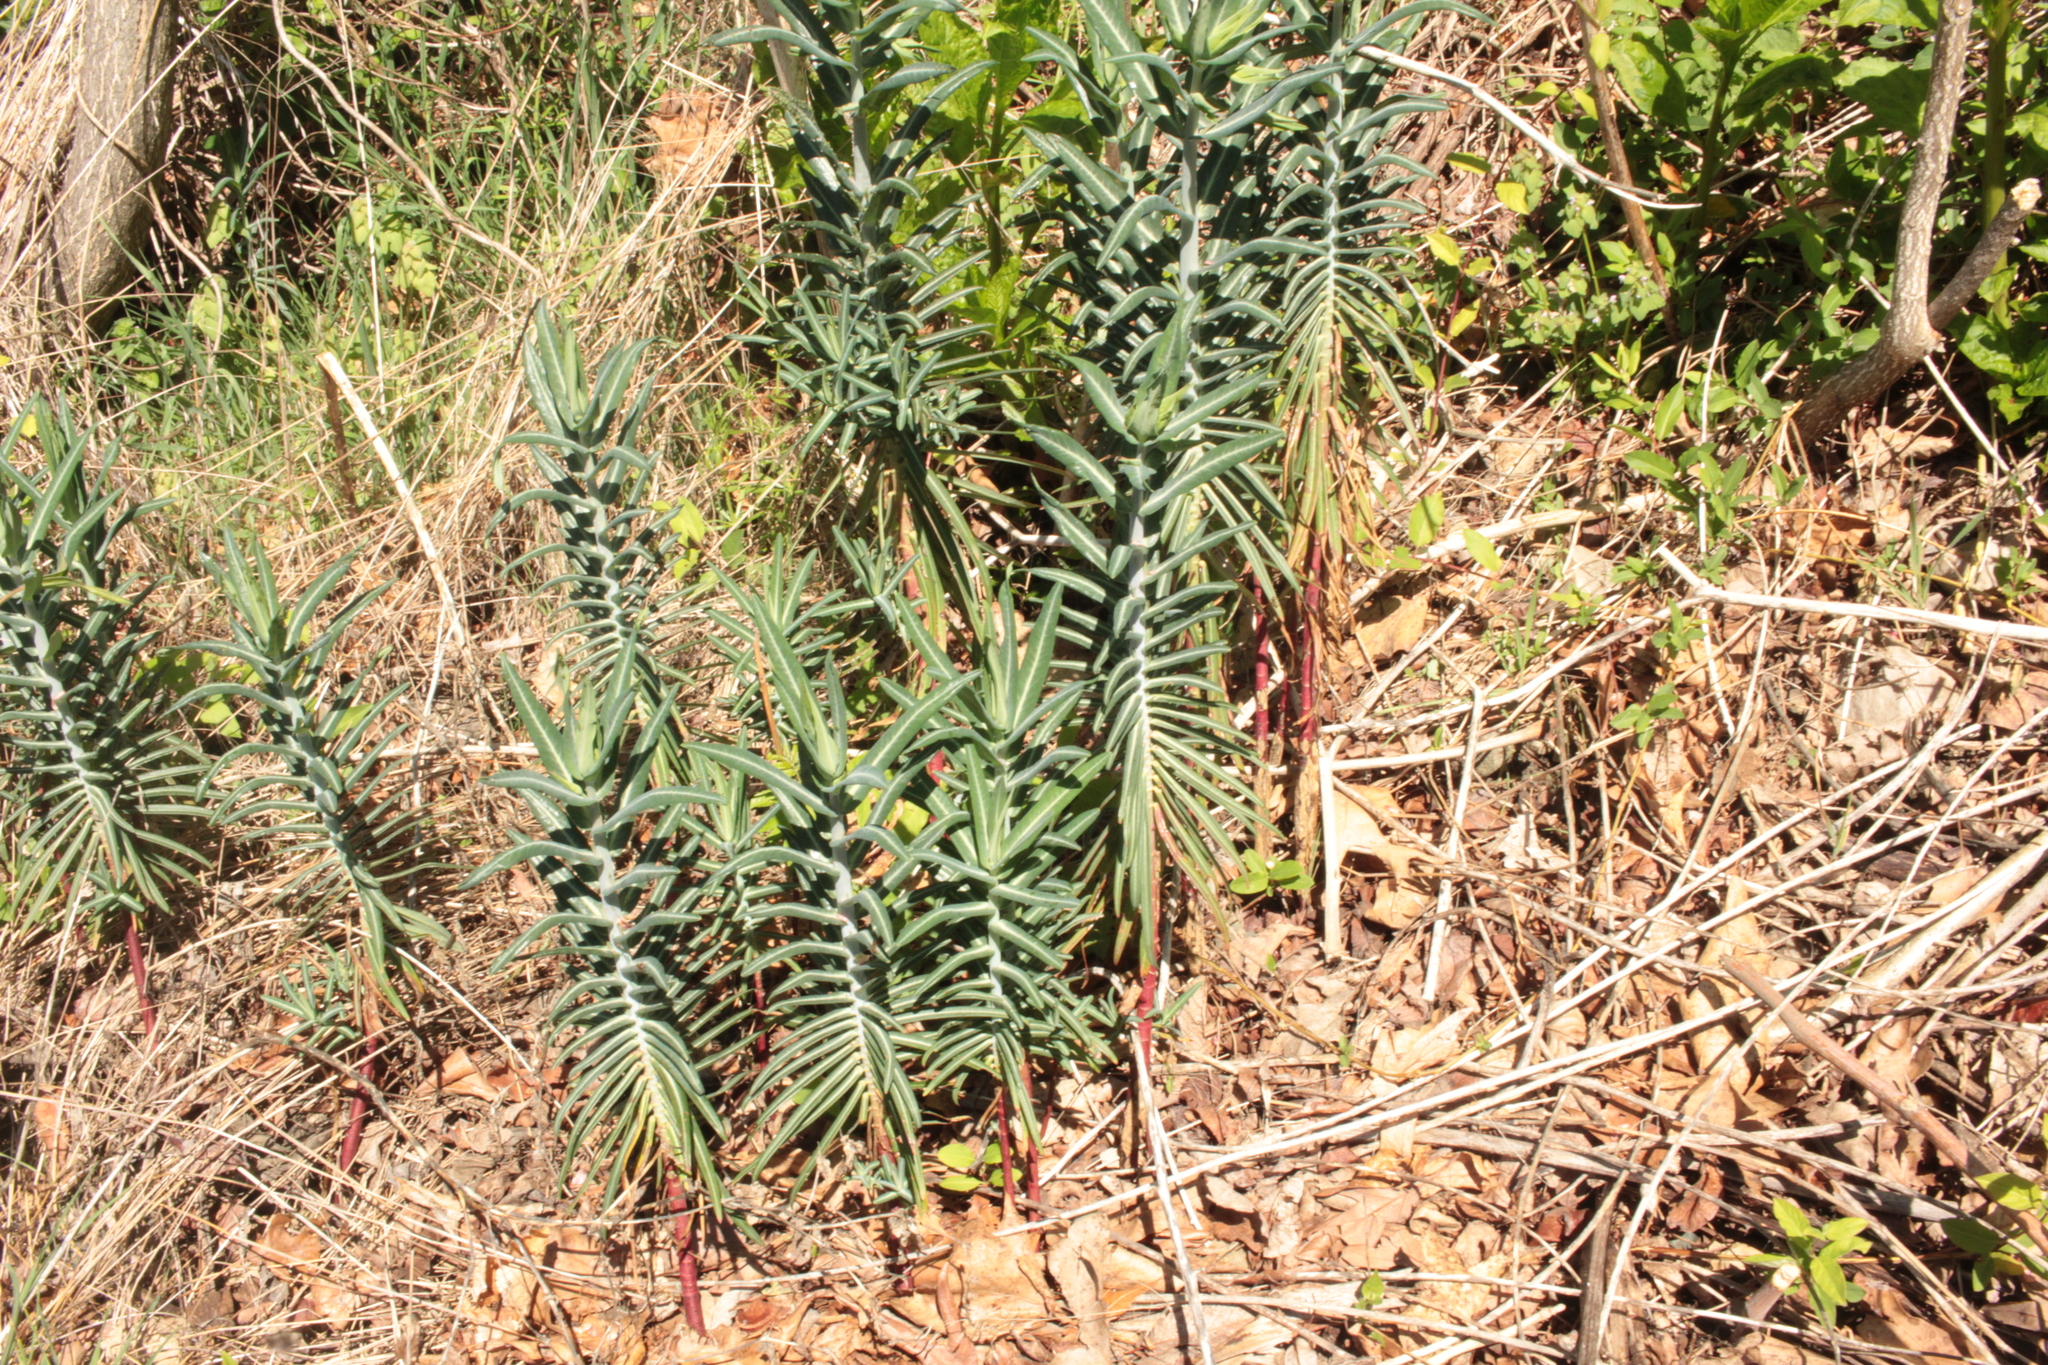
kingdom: Plantae
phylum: Tracheophyta
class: Magnoliopsida
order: Malpighiales
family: Euphorbiaceae
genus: Euphorbia
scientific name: Euphorbia lathyris
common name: Caper spurge
